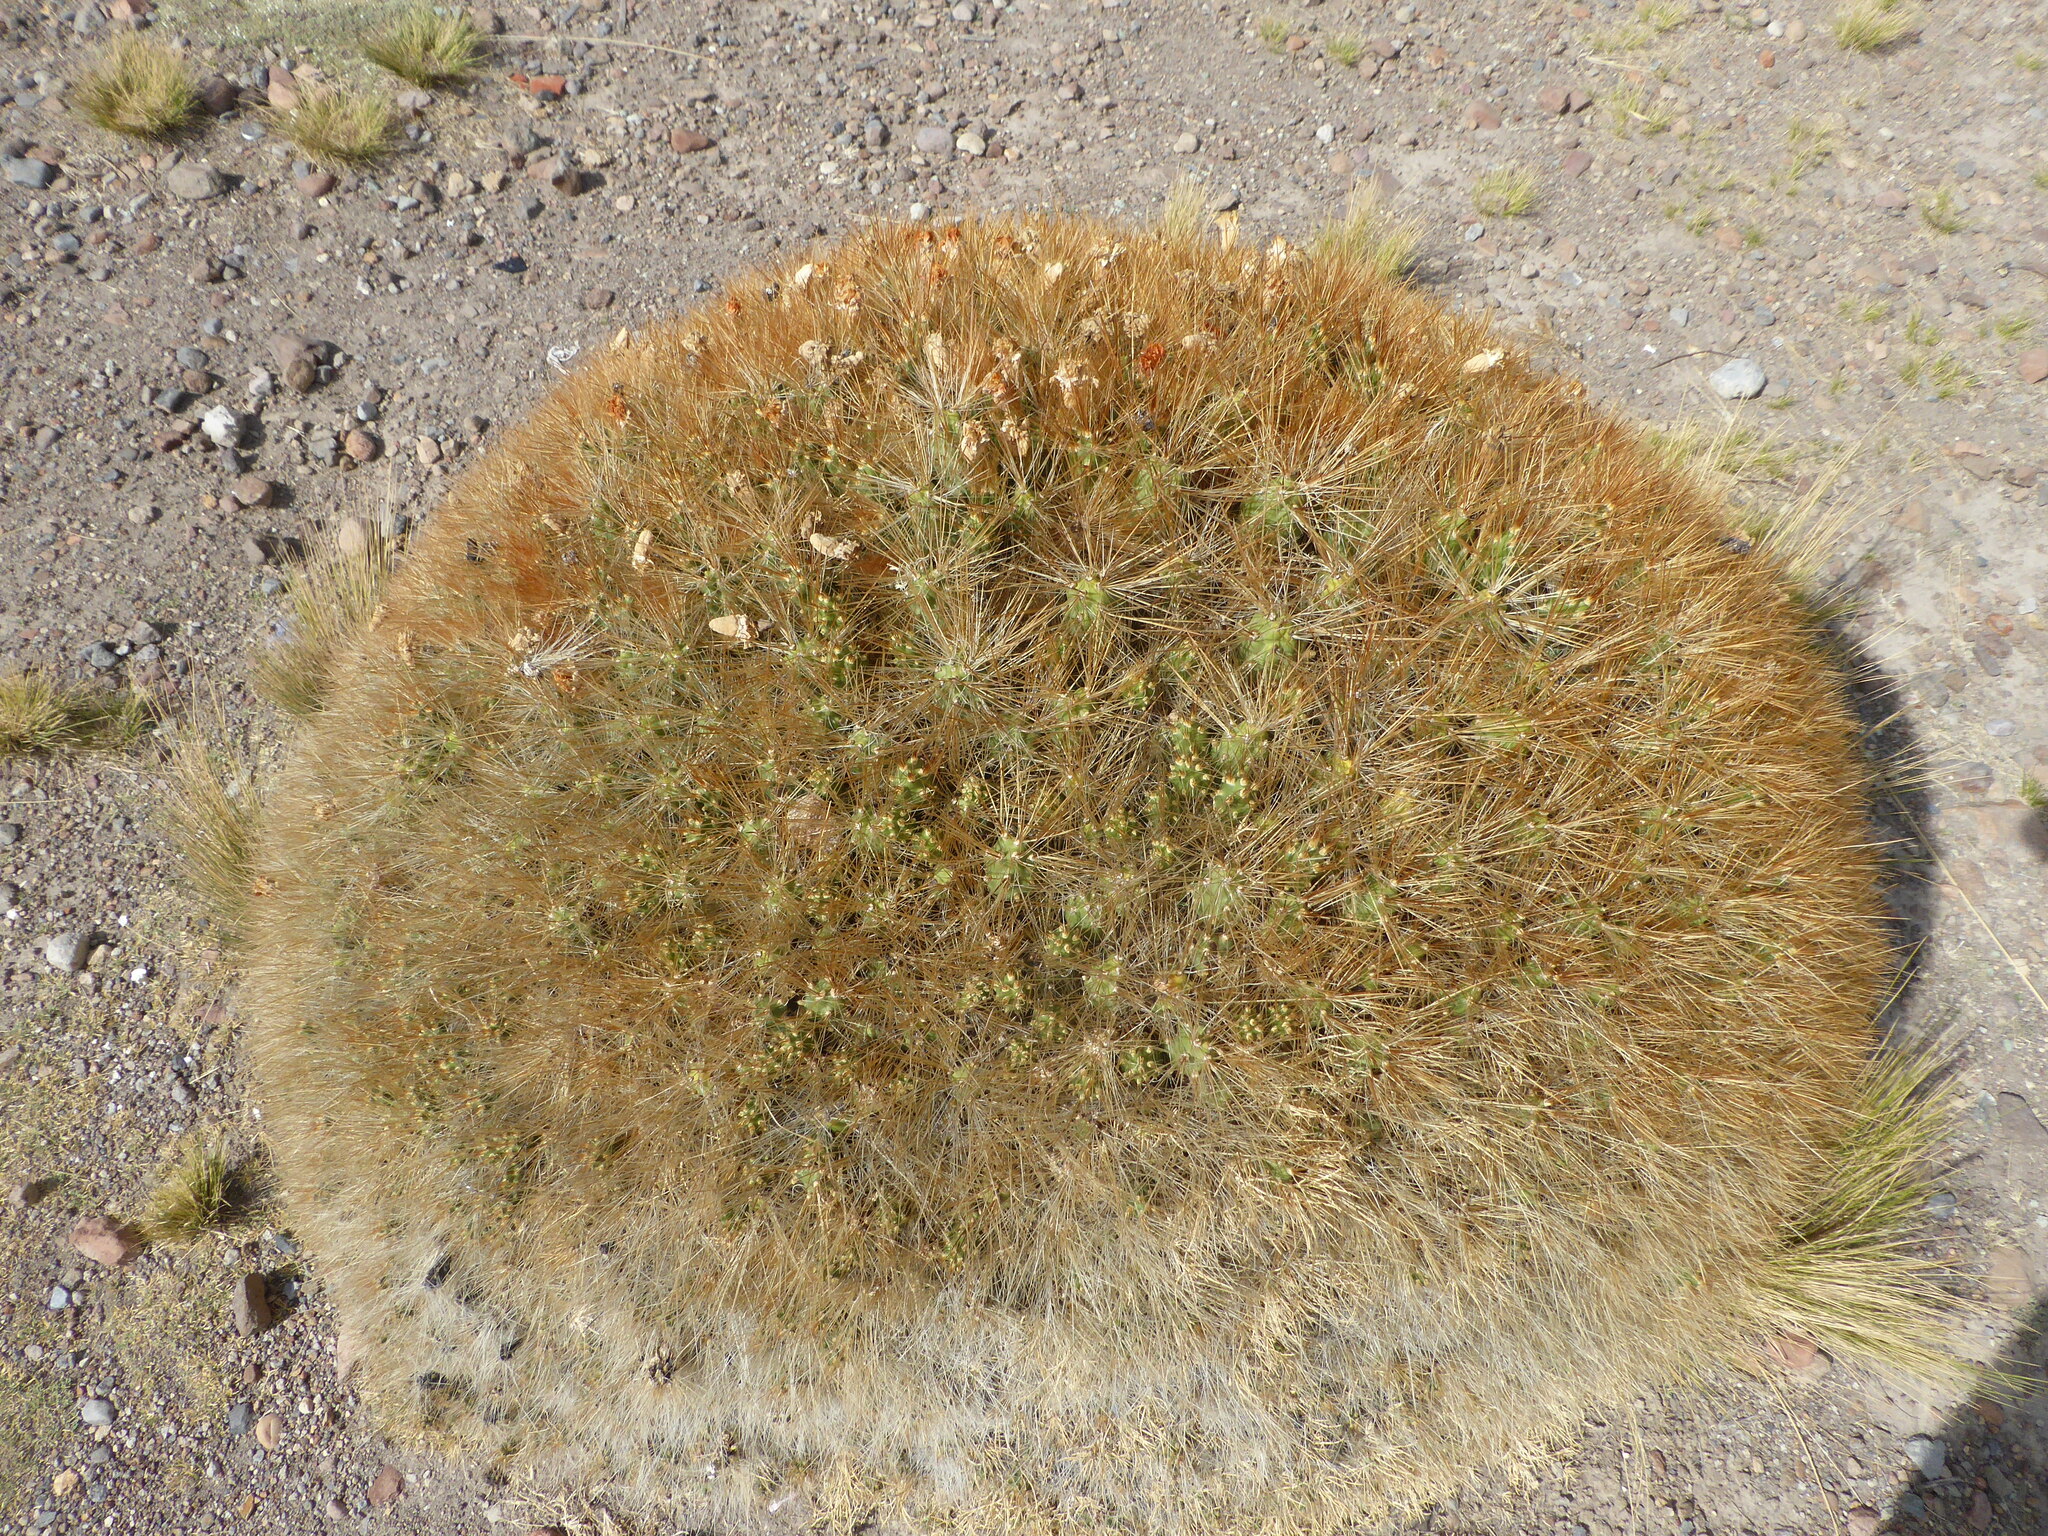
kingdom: Plantae
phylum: Tracheophyta
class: Magnoliopsida
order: Caryophyllales
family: Cactaceae
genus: Cumulopuntia
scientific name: Cumulopuntia glomerata
